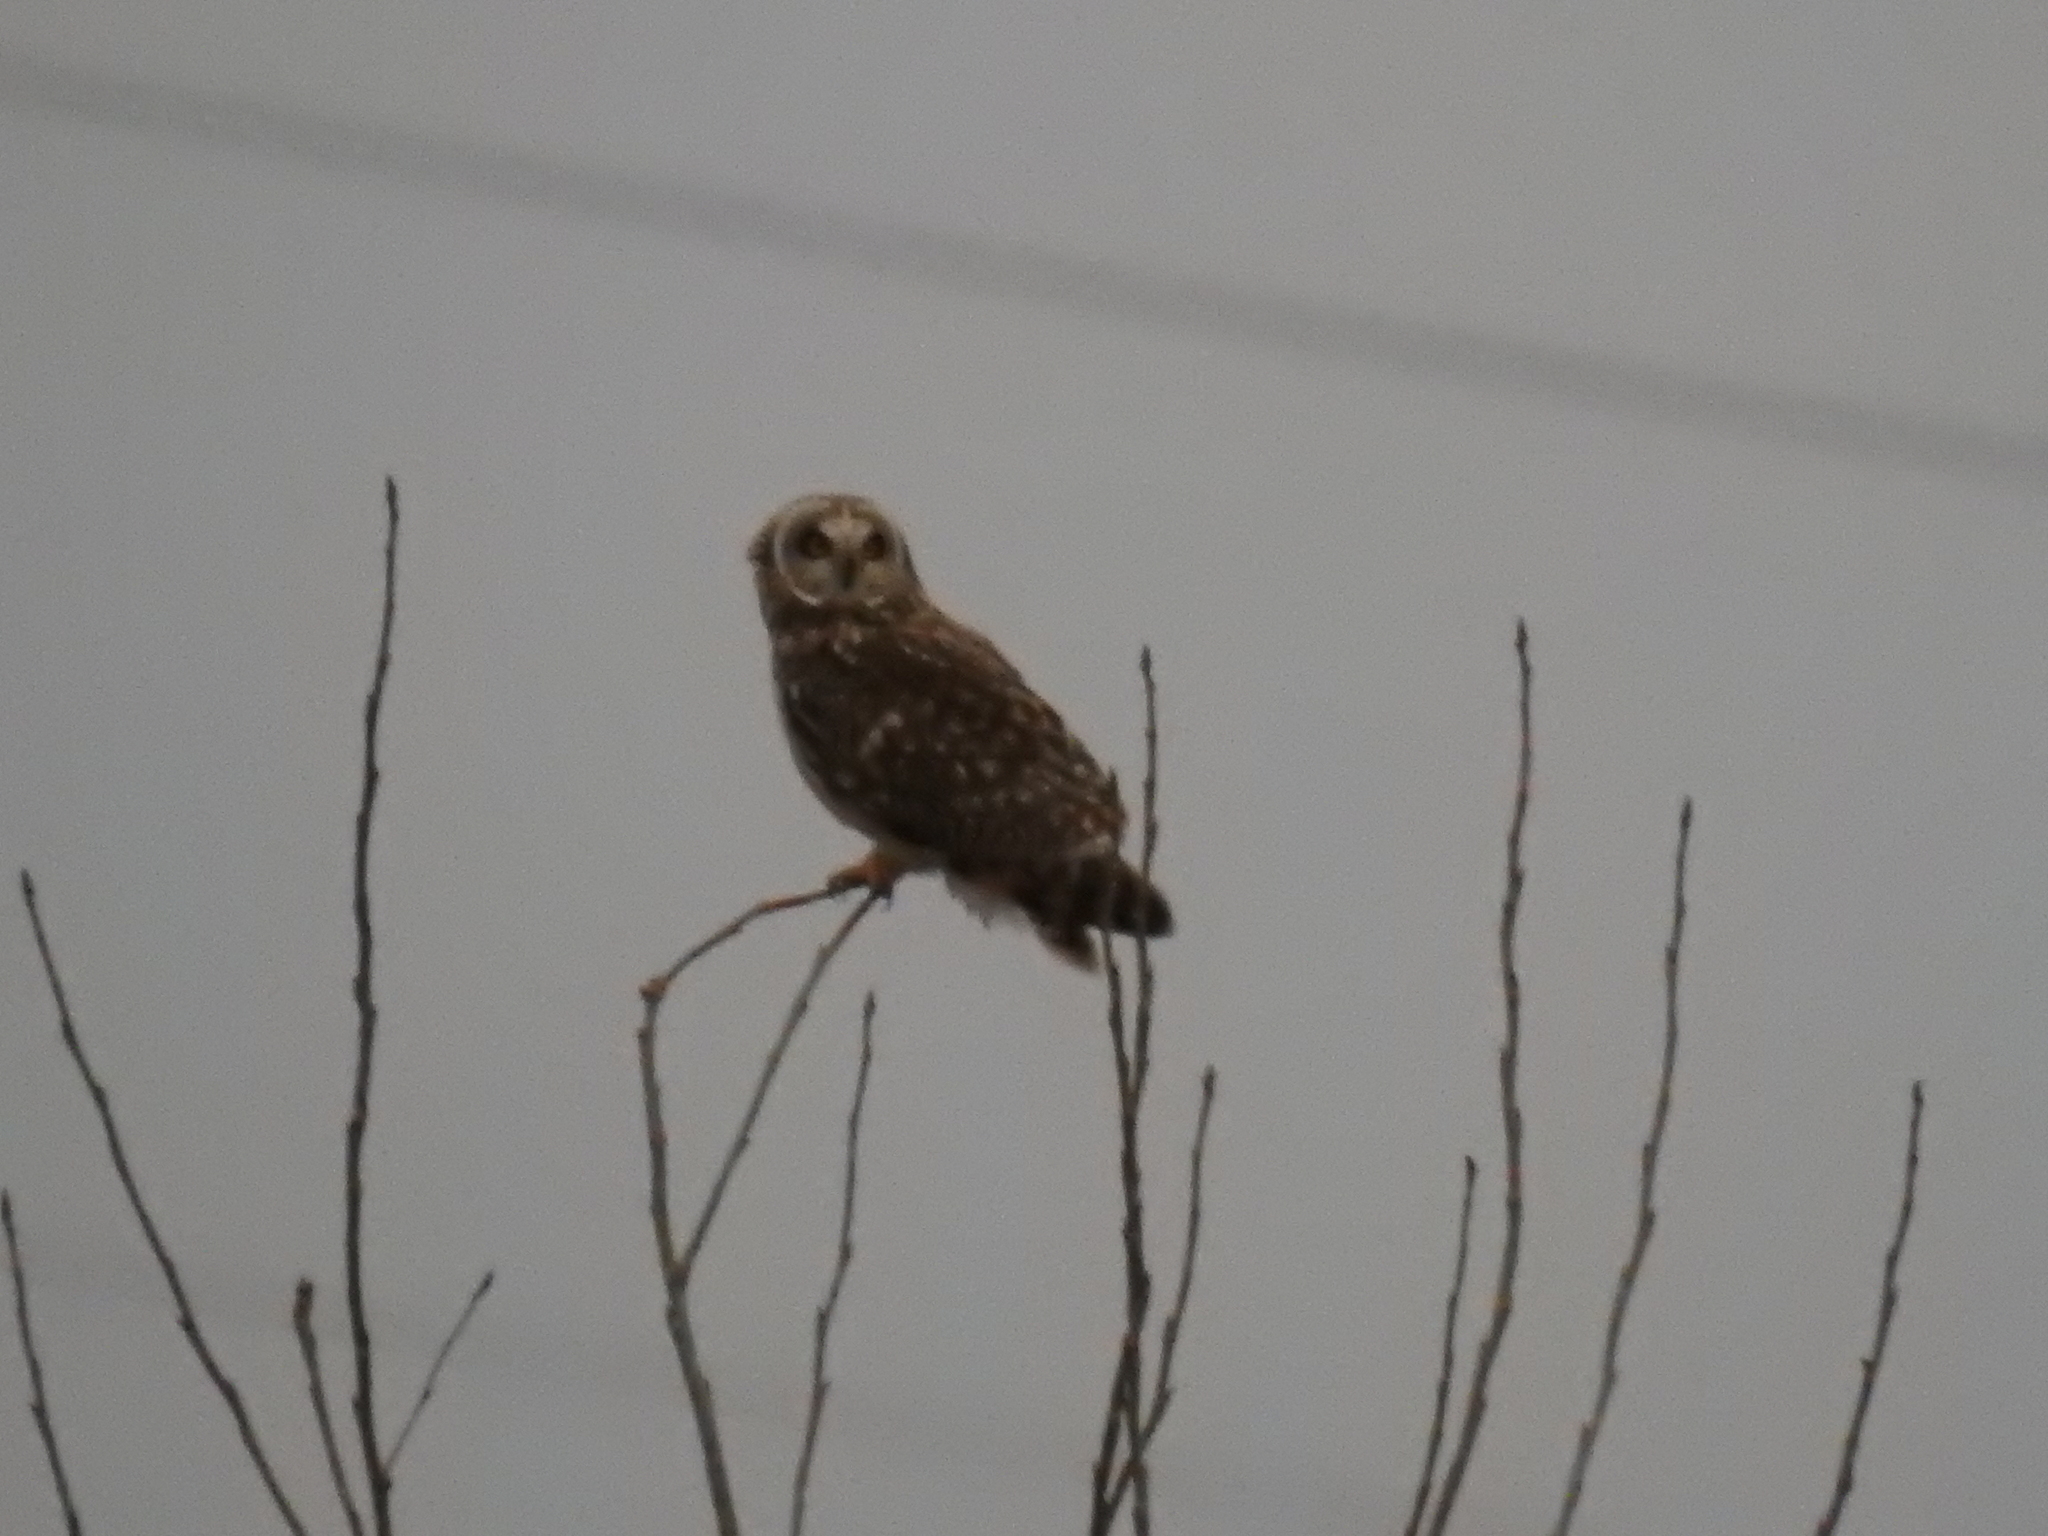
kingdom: Animalia
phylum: Chordata
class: Aves
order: Strigiformes
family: Strigidae
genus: Asio
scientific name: Asio flammeus
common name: Short-eared owl
